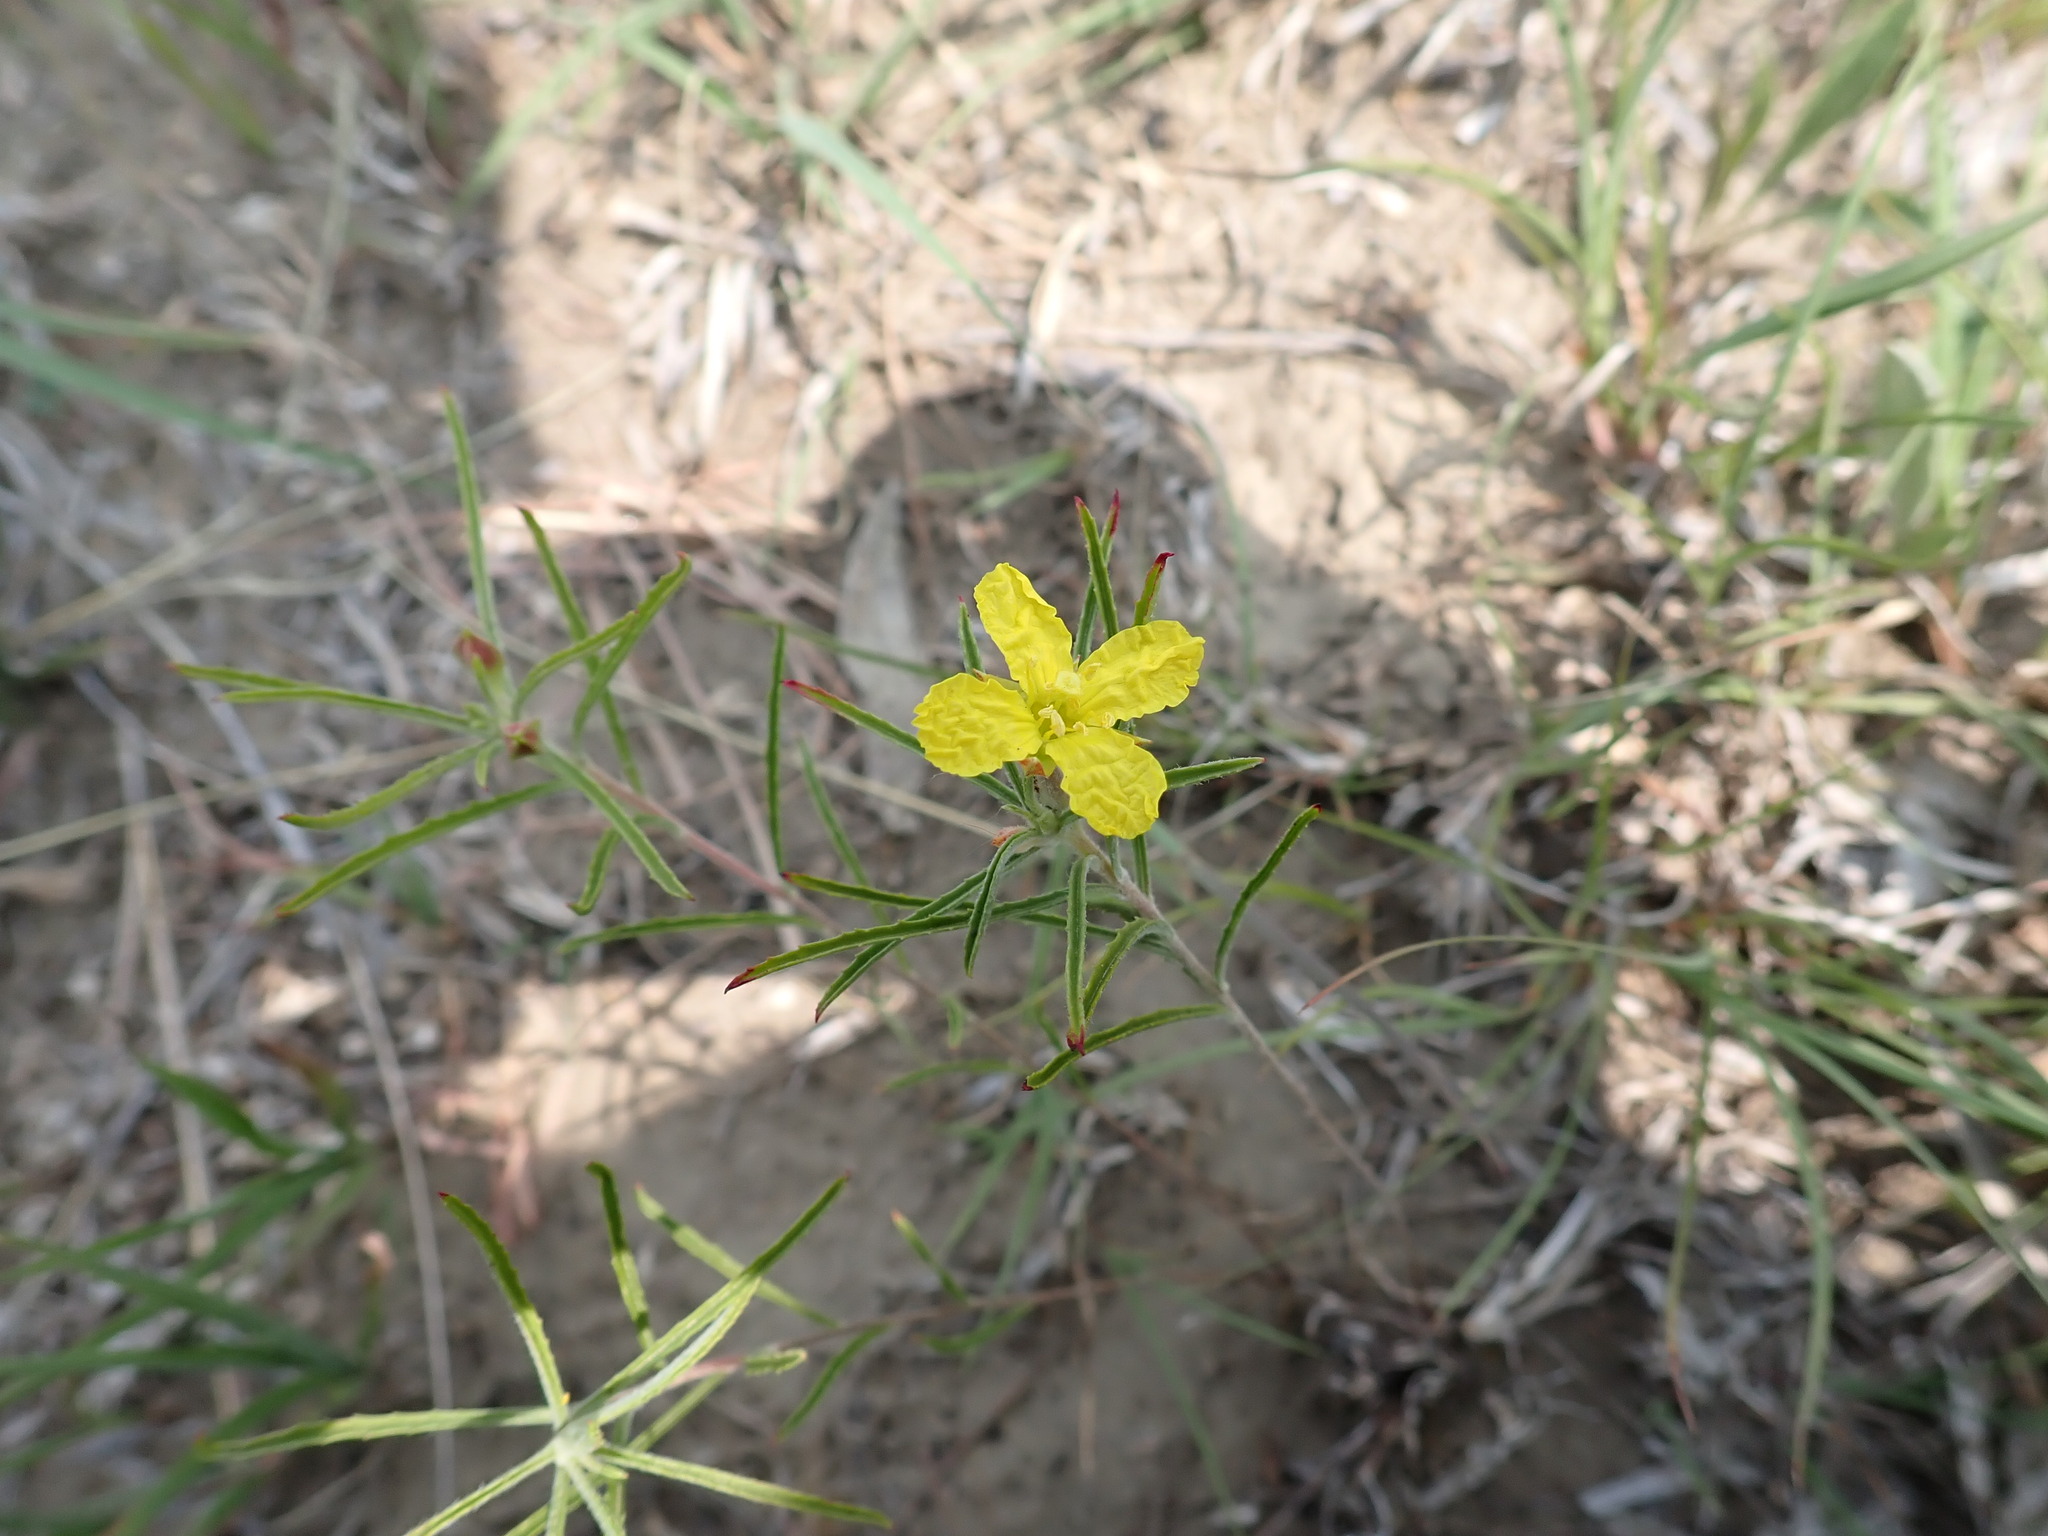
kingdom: Plantae
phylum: Tracheophyta
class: Magnoliopsida
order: Myrtales
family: Onagraceae
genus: Oenothera
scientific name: Oenothera serrulata
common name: Half-shrub calylophus
